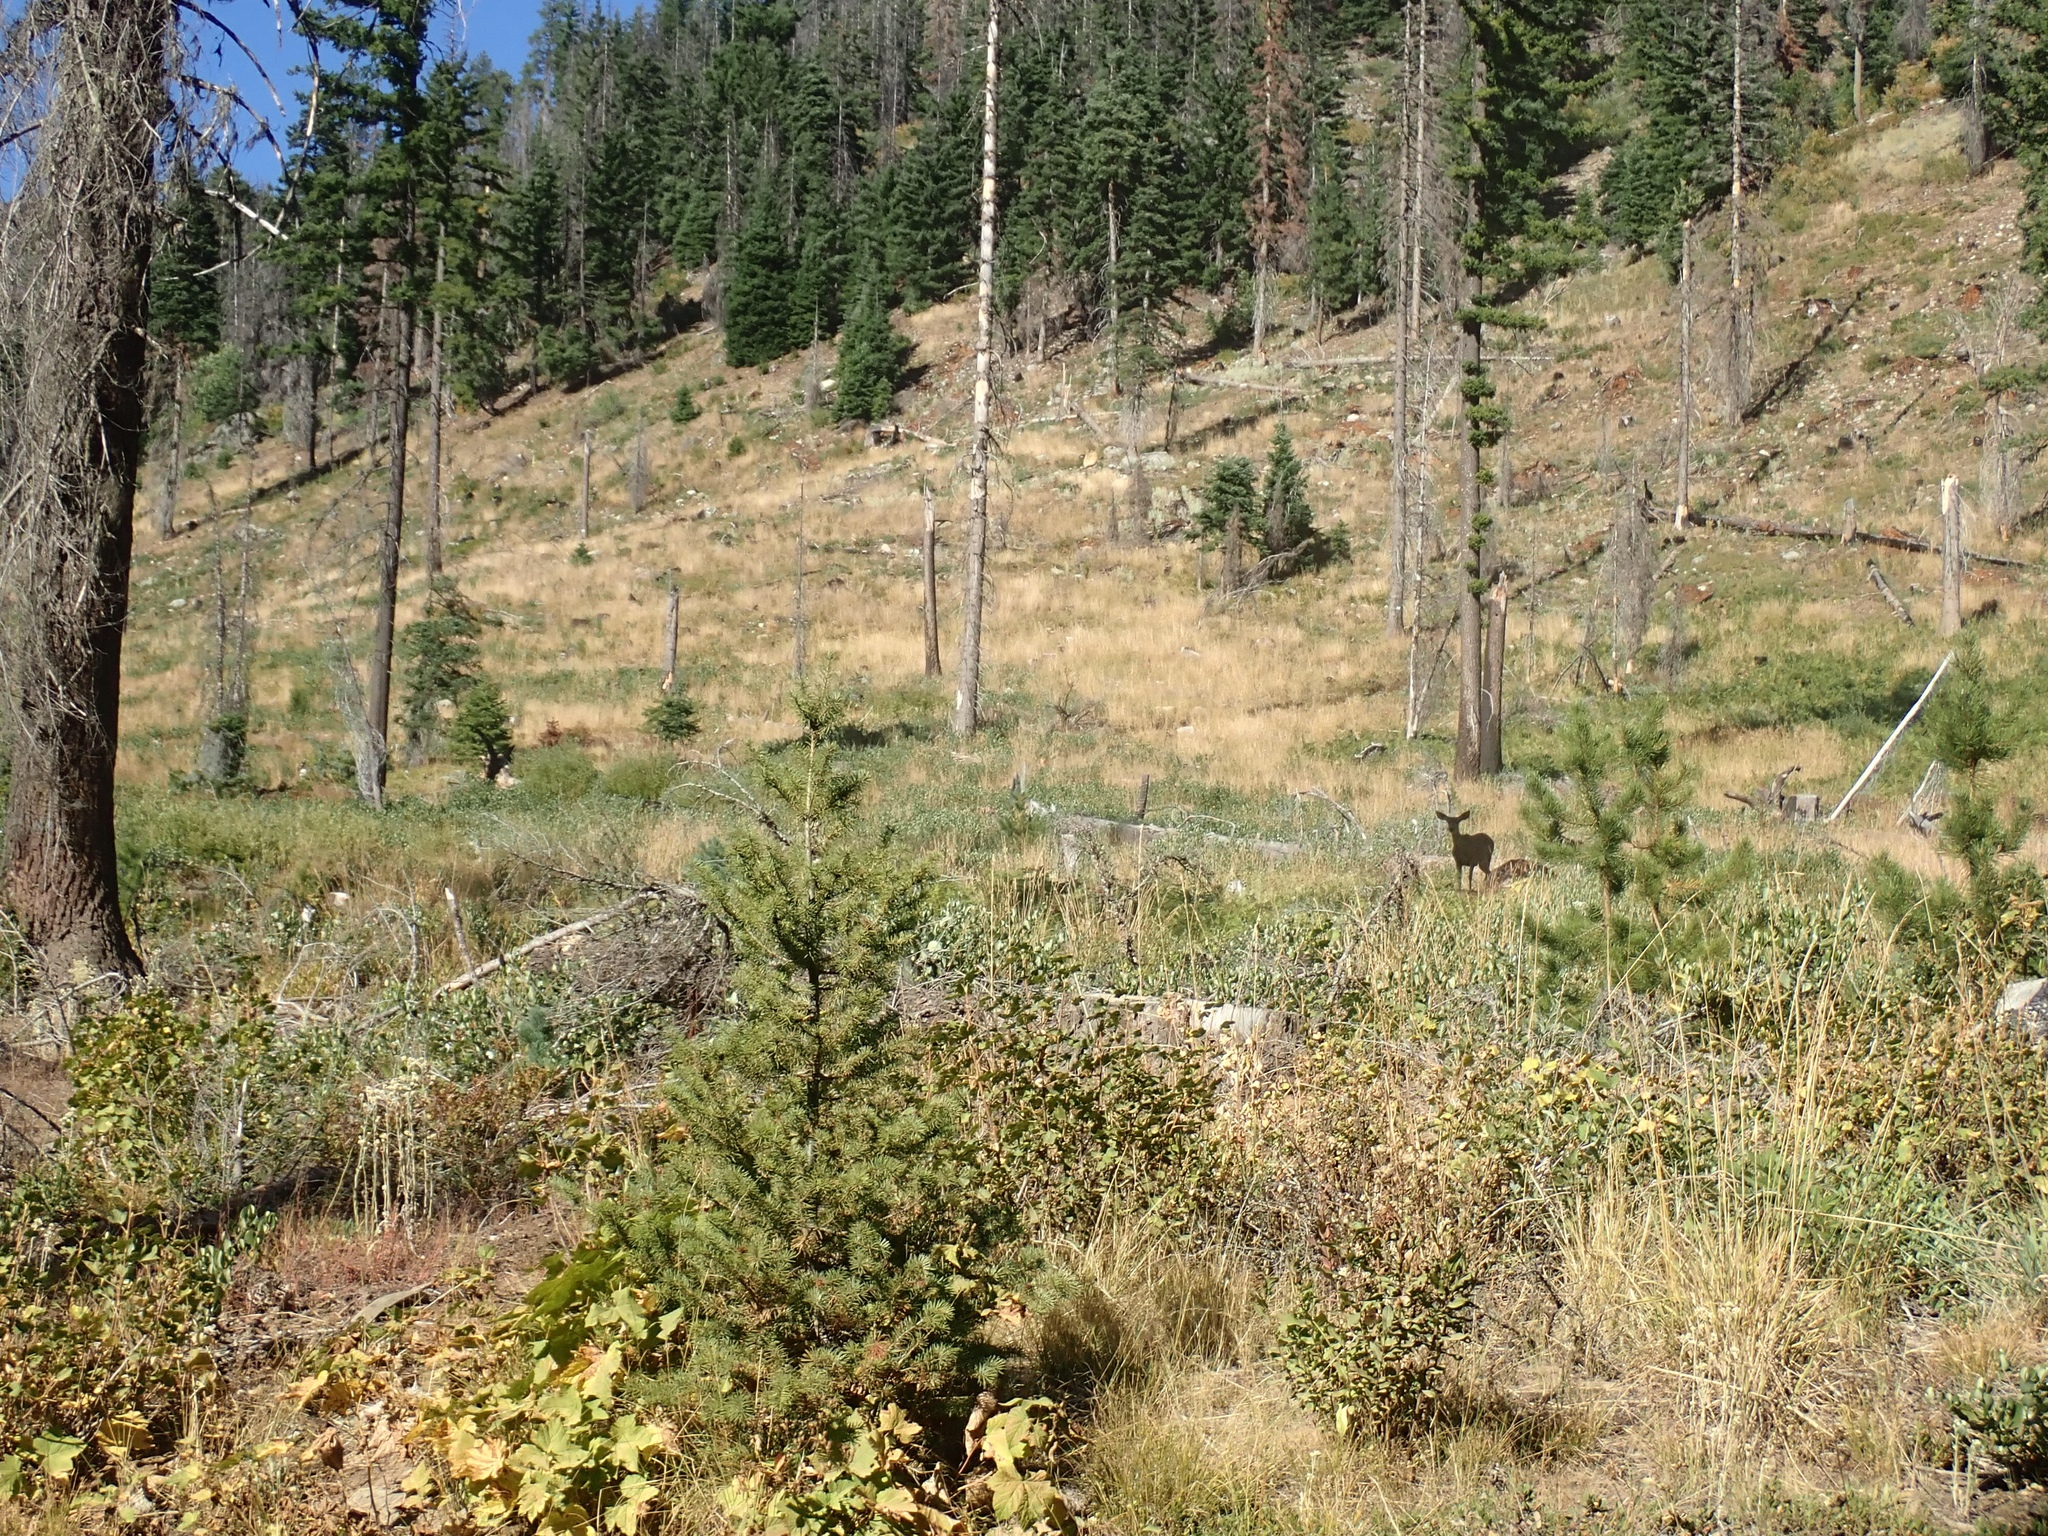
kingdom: Animalia
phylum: Chordata
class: Mammalia
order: Artiodactyla
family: Cervidae
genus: Odocoileus
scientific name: Odocoileus hemionus
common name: Mule deer
